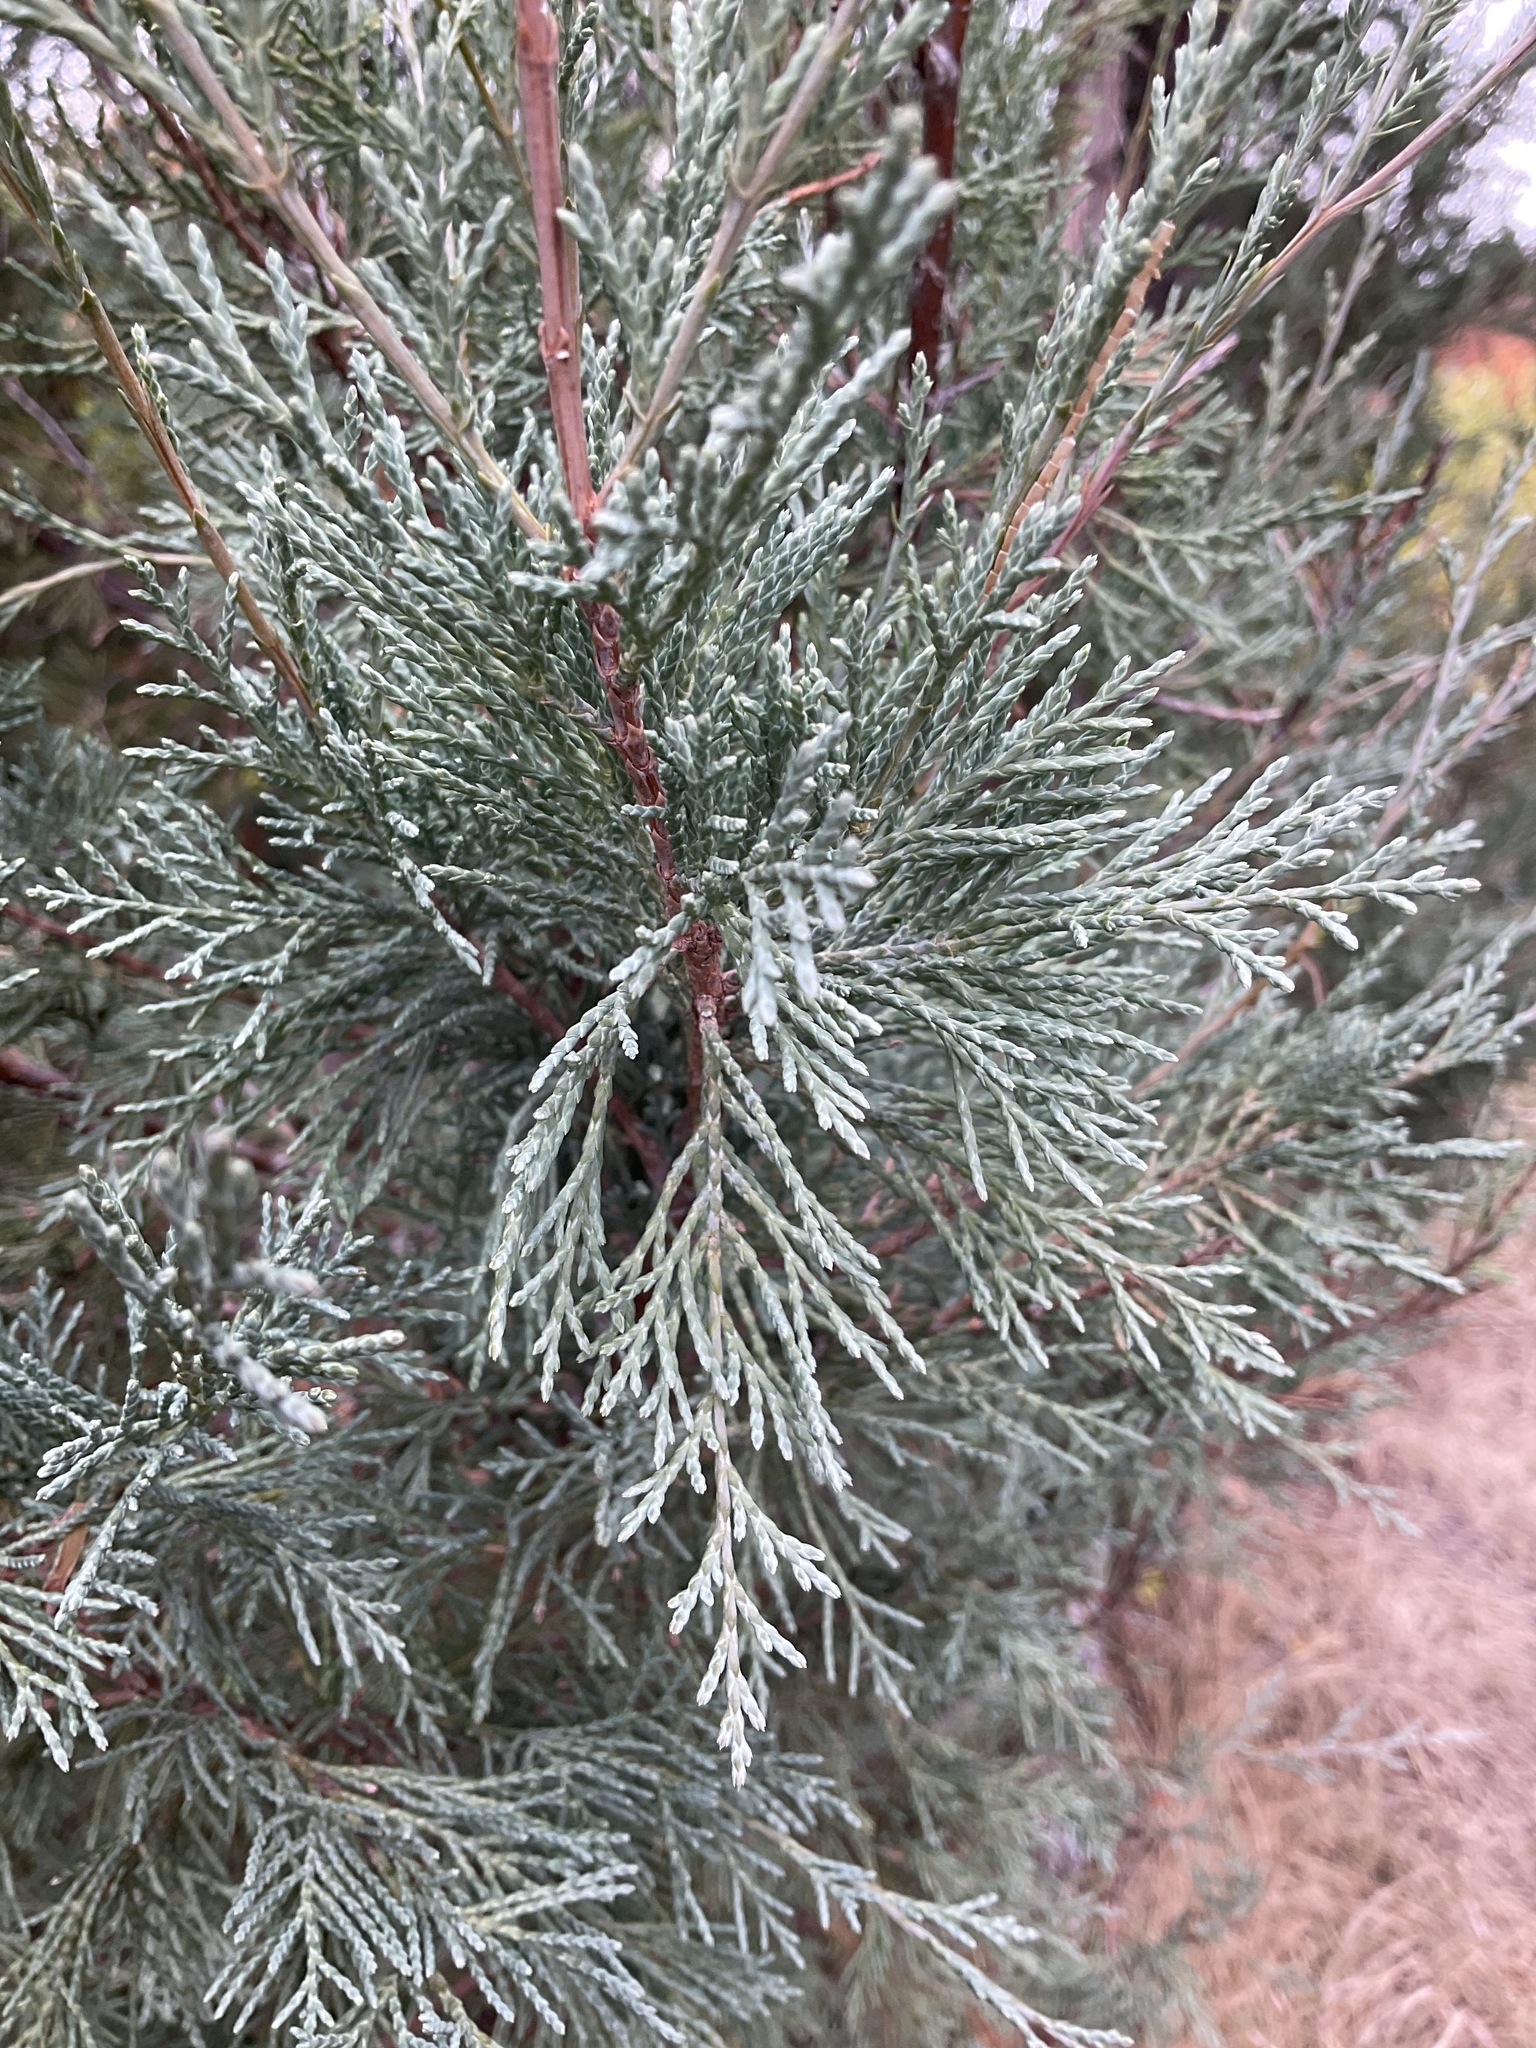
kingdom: Plantae
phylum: Tracheophyta
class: Pinopsida
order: Pinales
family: Cupressaceae
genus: Juniperus
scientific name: Juniperus scopulorum
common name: Rocky mountain juniper
